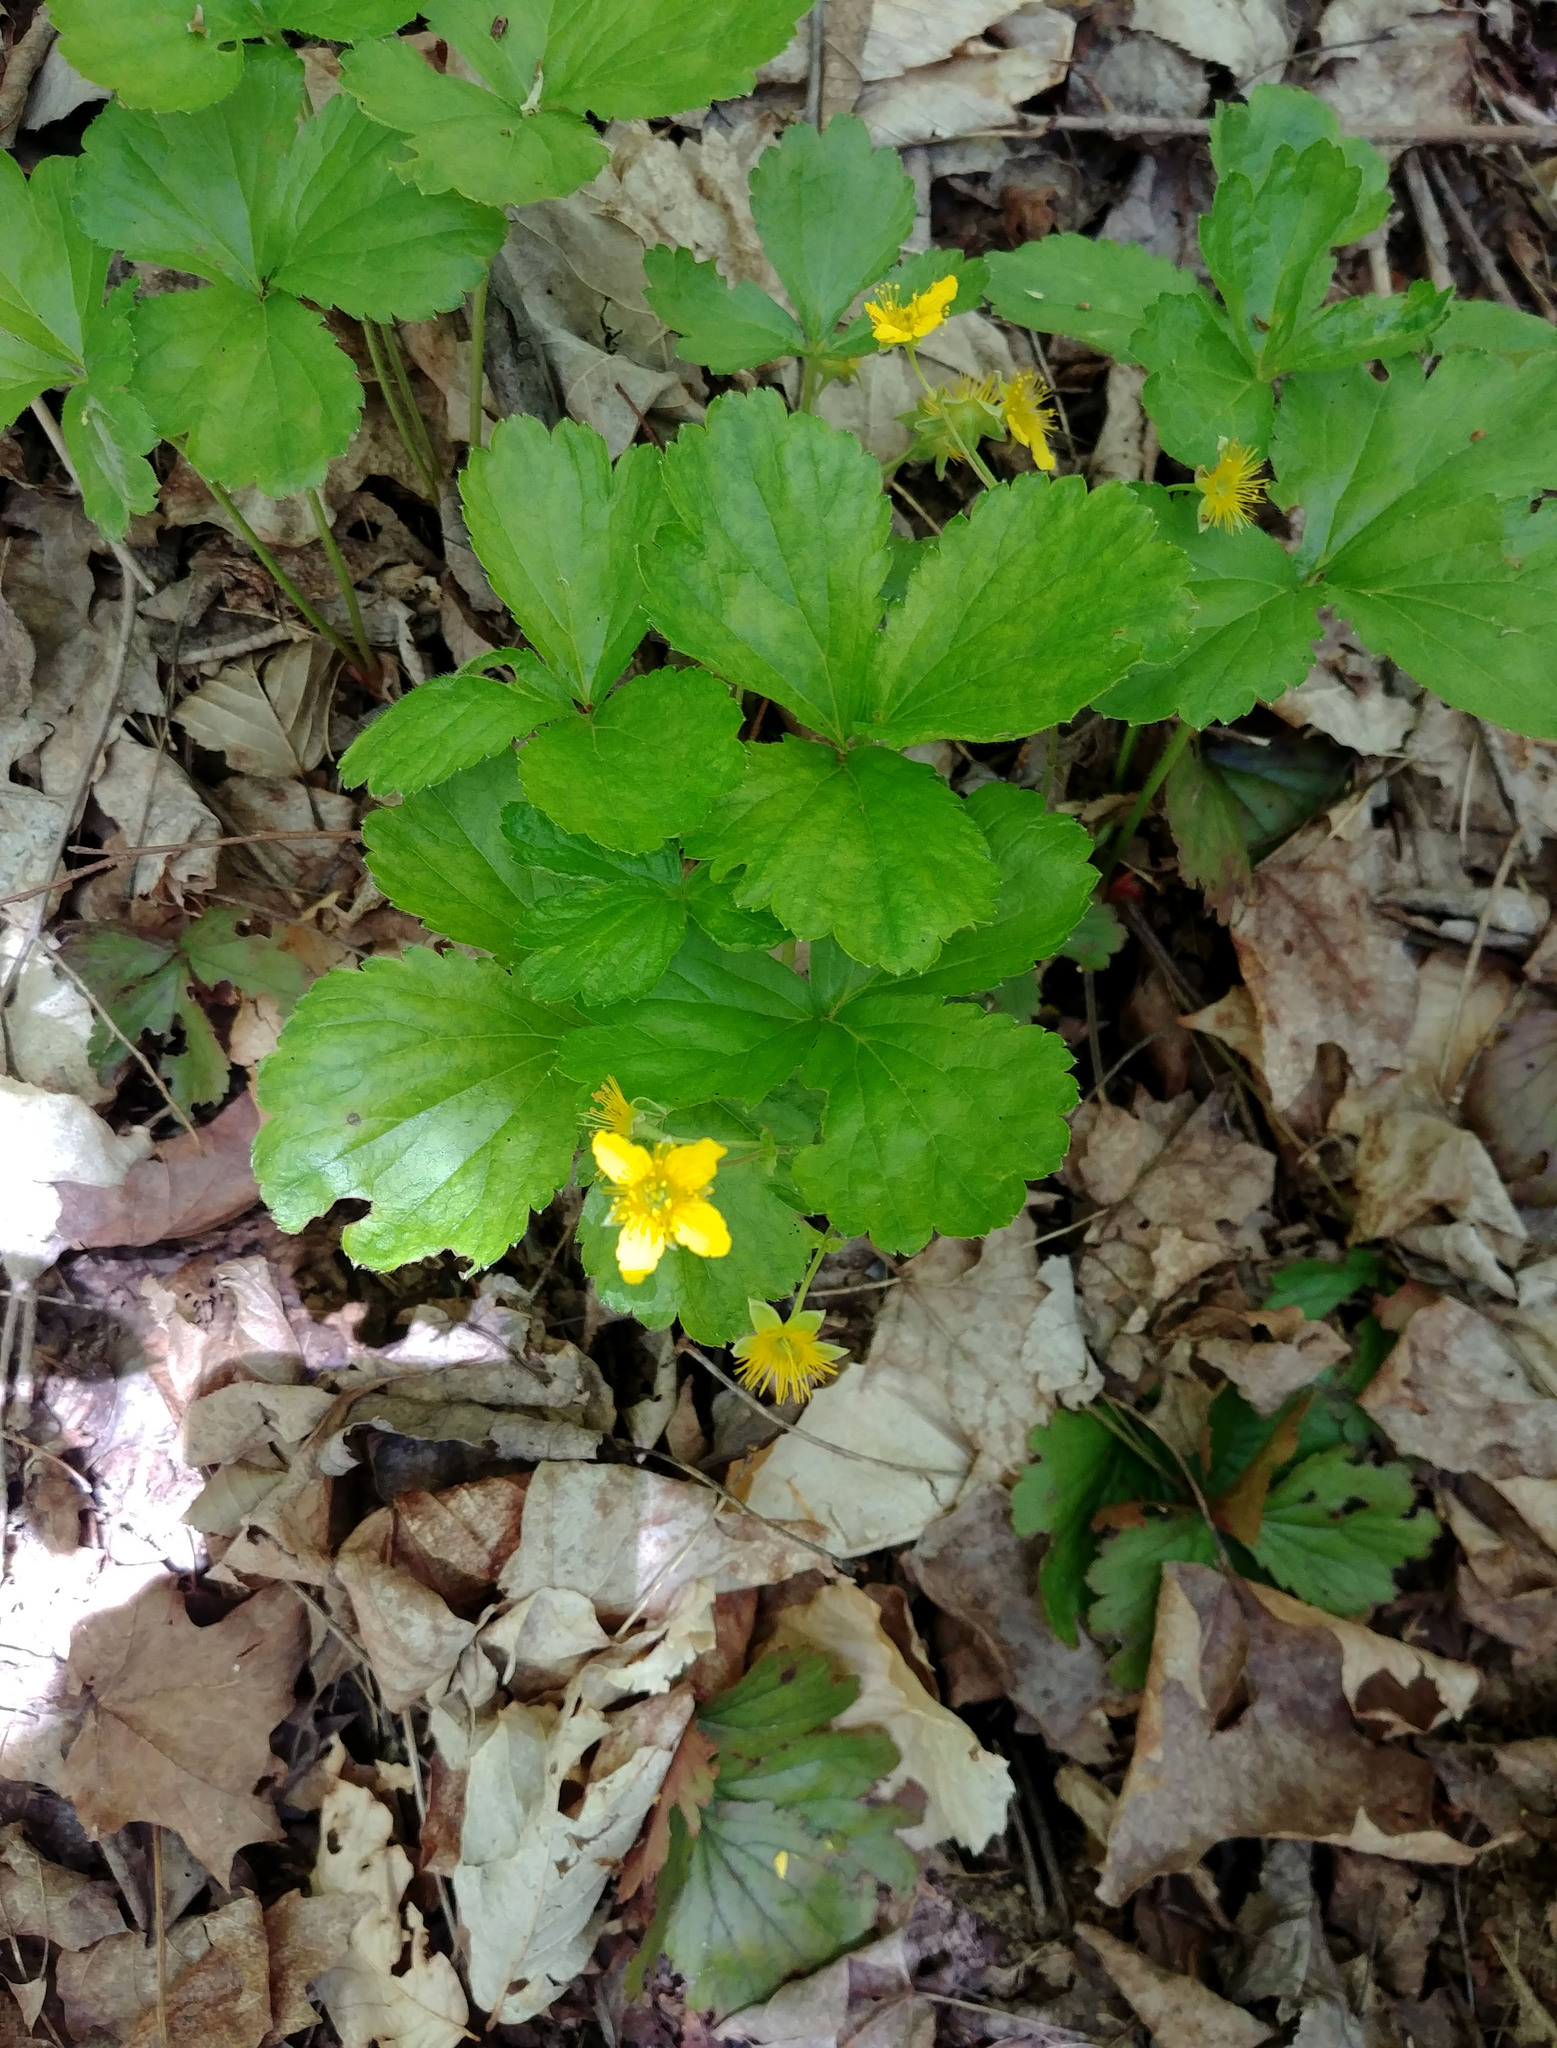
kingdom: Plantae
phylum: Tracheophyta
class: Magnoliopsida
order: Rosales
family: Rosaceae
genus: Geum
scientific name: Geum fragarioides
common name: Appalachian barren strawberry
